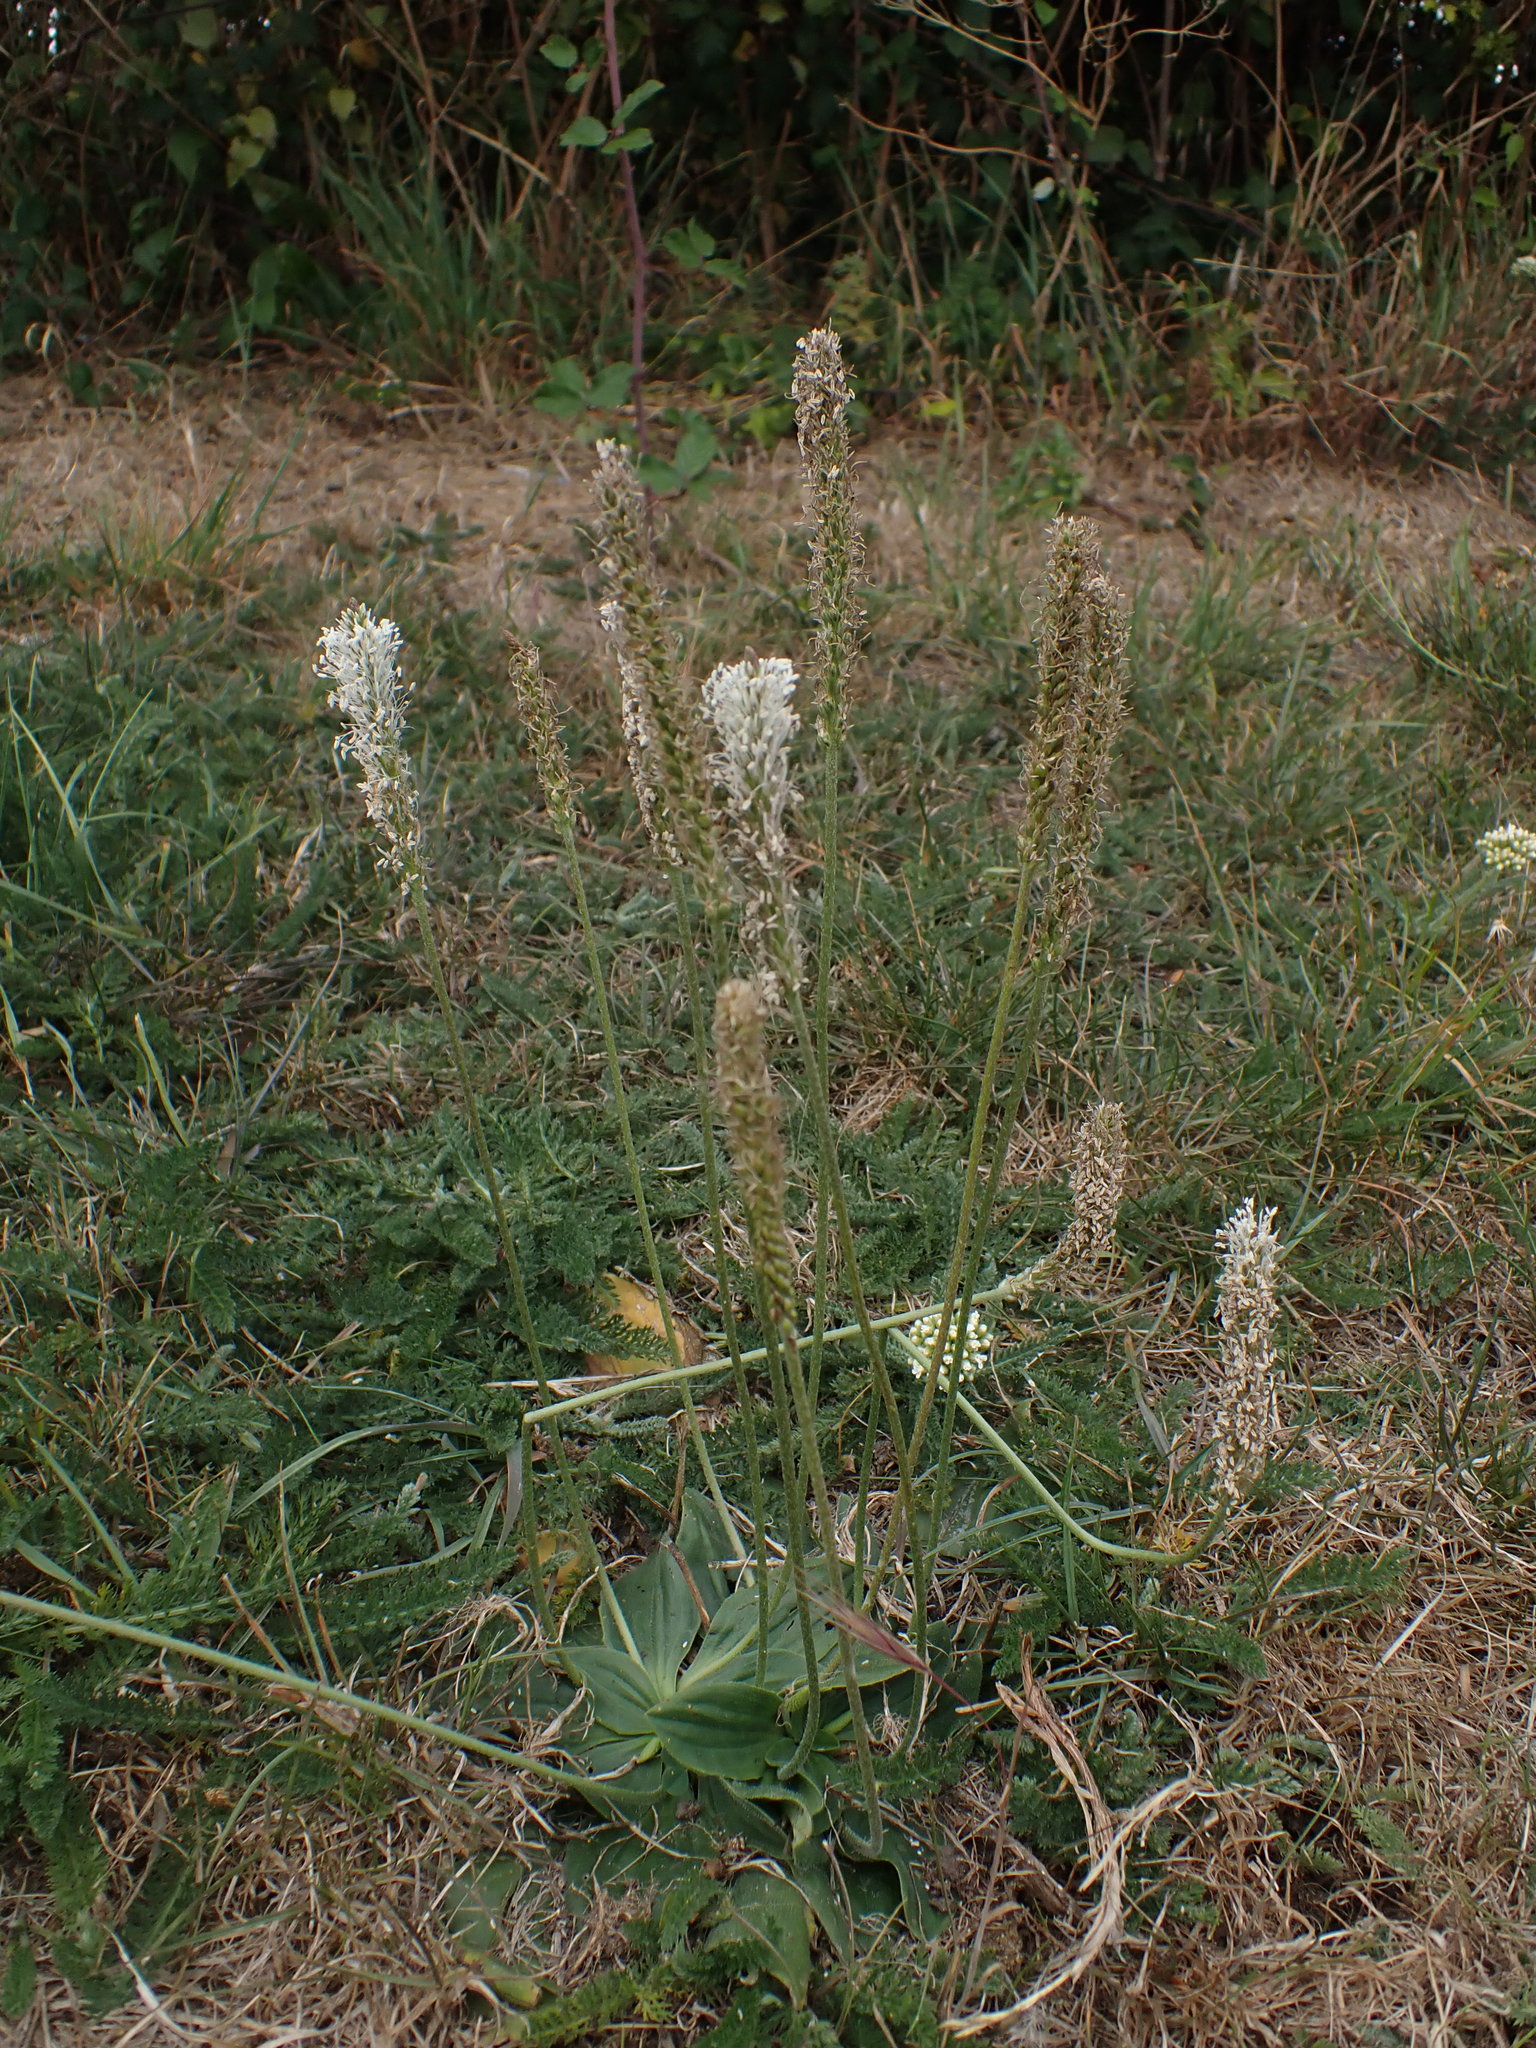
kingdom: Plantae
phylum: Tracheophyta
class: Magnoliopsida
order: Lamiales
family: Plantaginaceae
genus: Plantago
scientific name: Plantago media
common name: Hoary plantain
